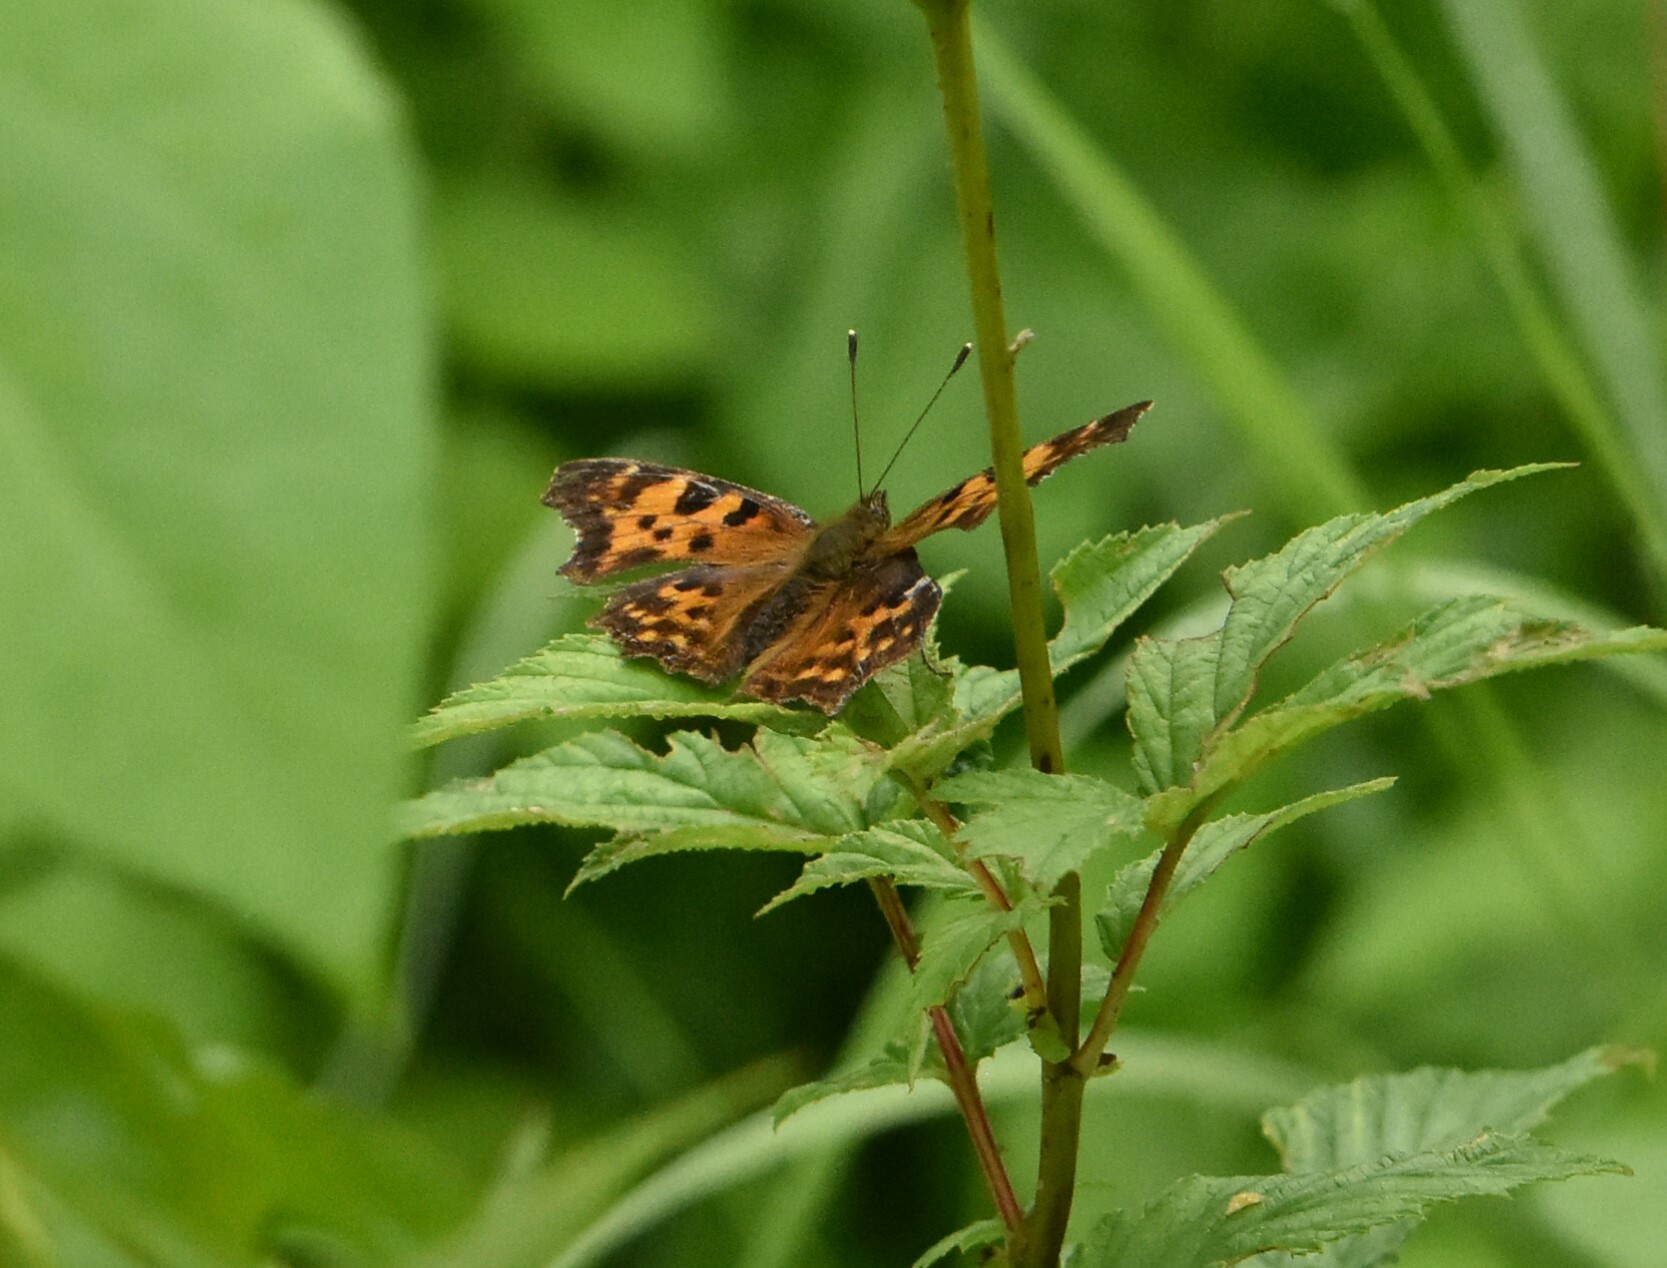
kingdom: Animalia
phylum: Arthropoda
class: Insecta
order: Lepidoptera
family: Nymphalidae
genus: Polygonia
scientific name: Polygonia c-album
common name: Comma
